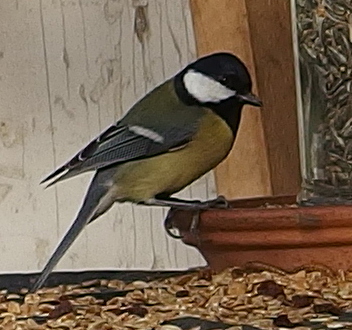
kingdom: Animalia
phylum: Chordata
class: Aves
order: Passeriformes
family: Paridae
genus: Parus
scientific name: Parus major
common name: Great tit
